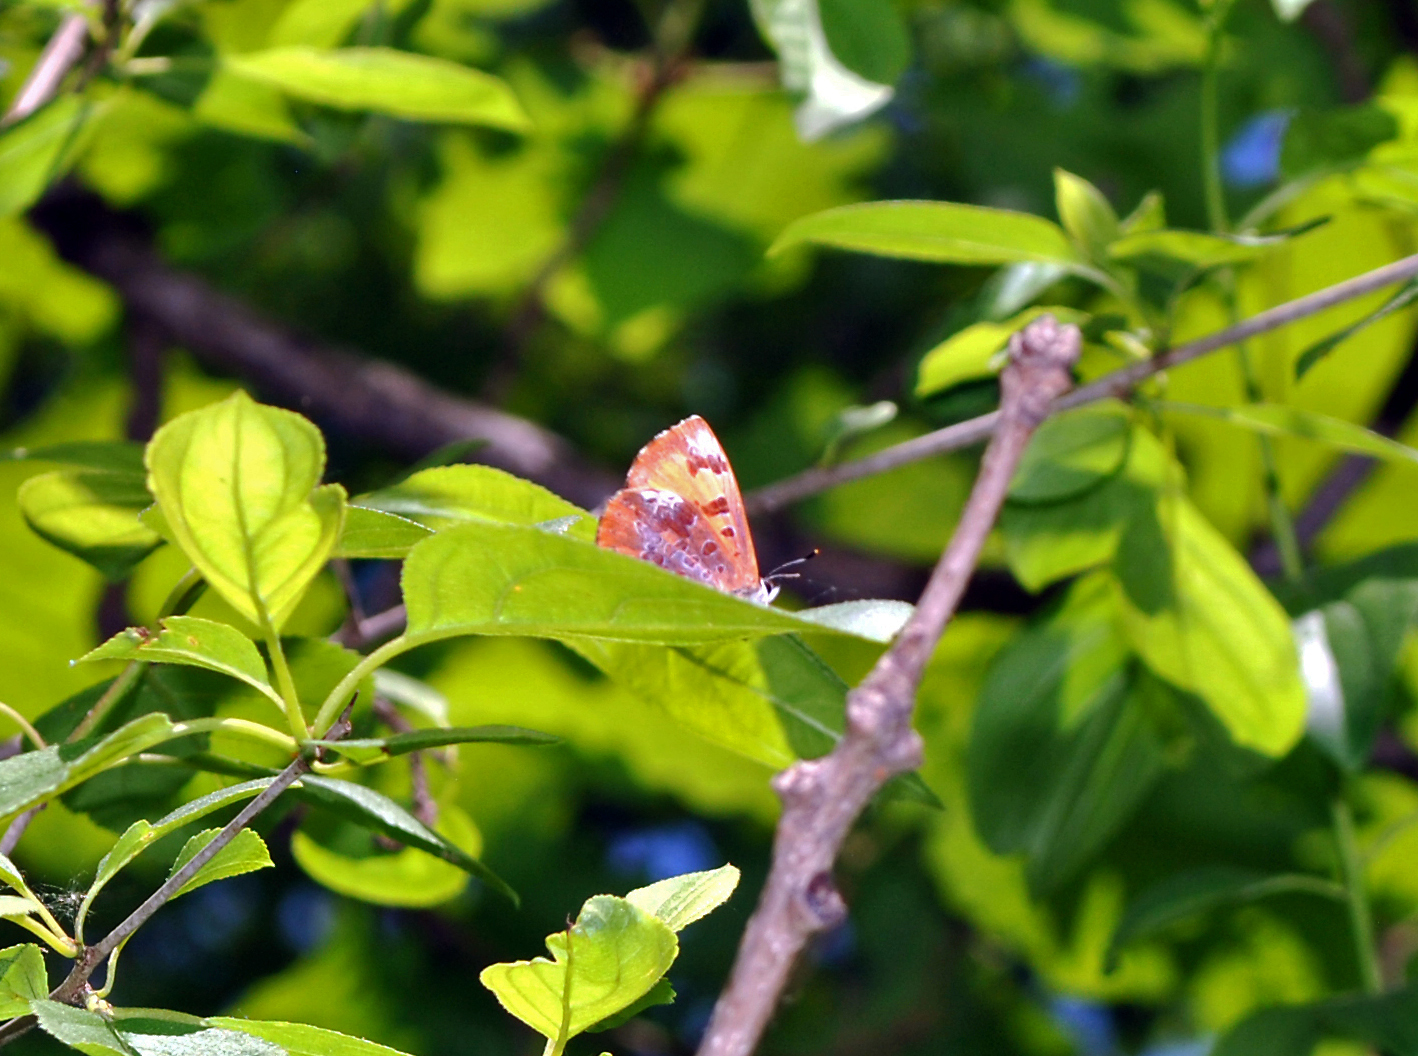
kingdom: Animalia
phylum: Arthropoda
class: Insecta
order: Lepidoptera
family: Lycaenidae
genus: Feniseca
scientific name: Feniseca tarquinius
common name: Harvester
